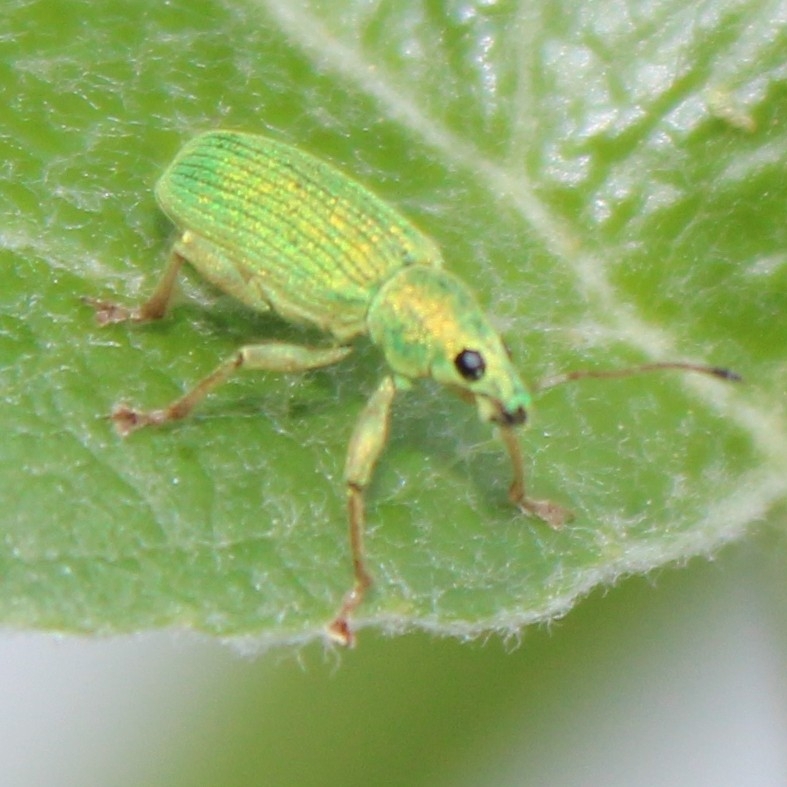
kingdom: Animalia
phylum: Arthropoda
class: Insecta
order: Coleoptera
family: Curculionidae
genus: Polydrusus
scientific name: Polydrusus formosus
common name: Weevil
